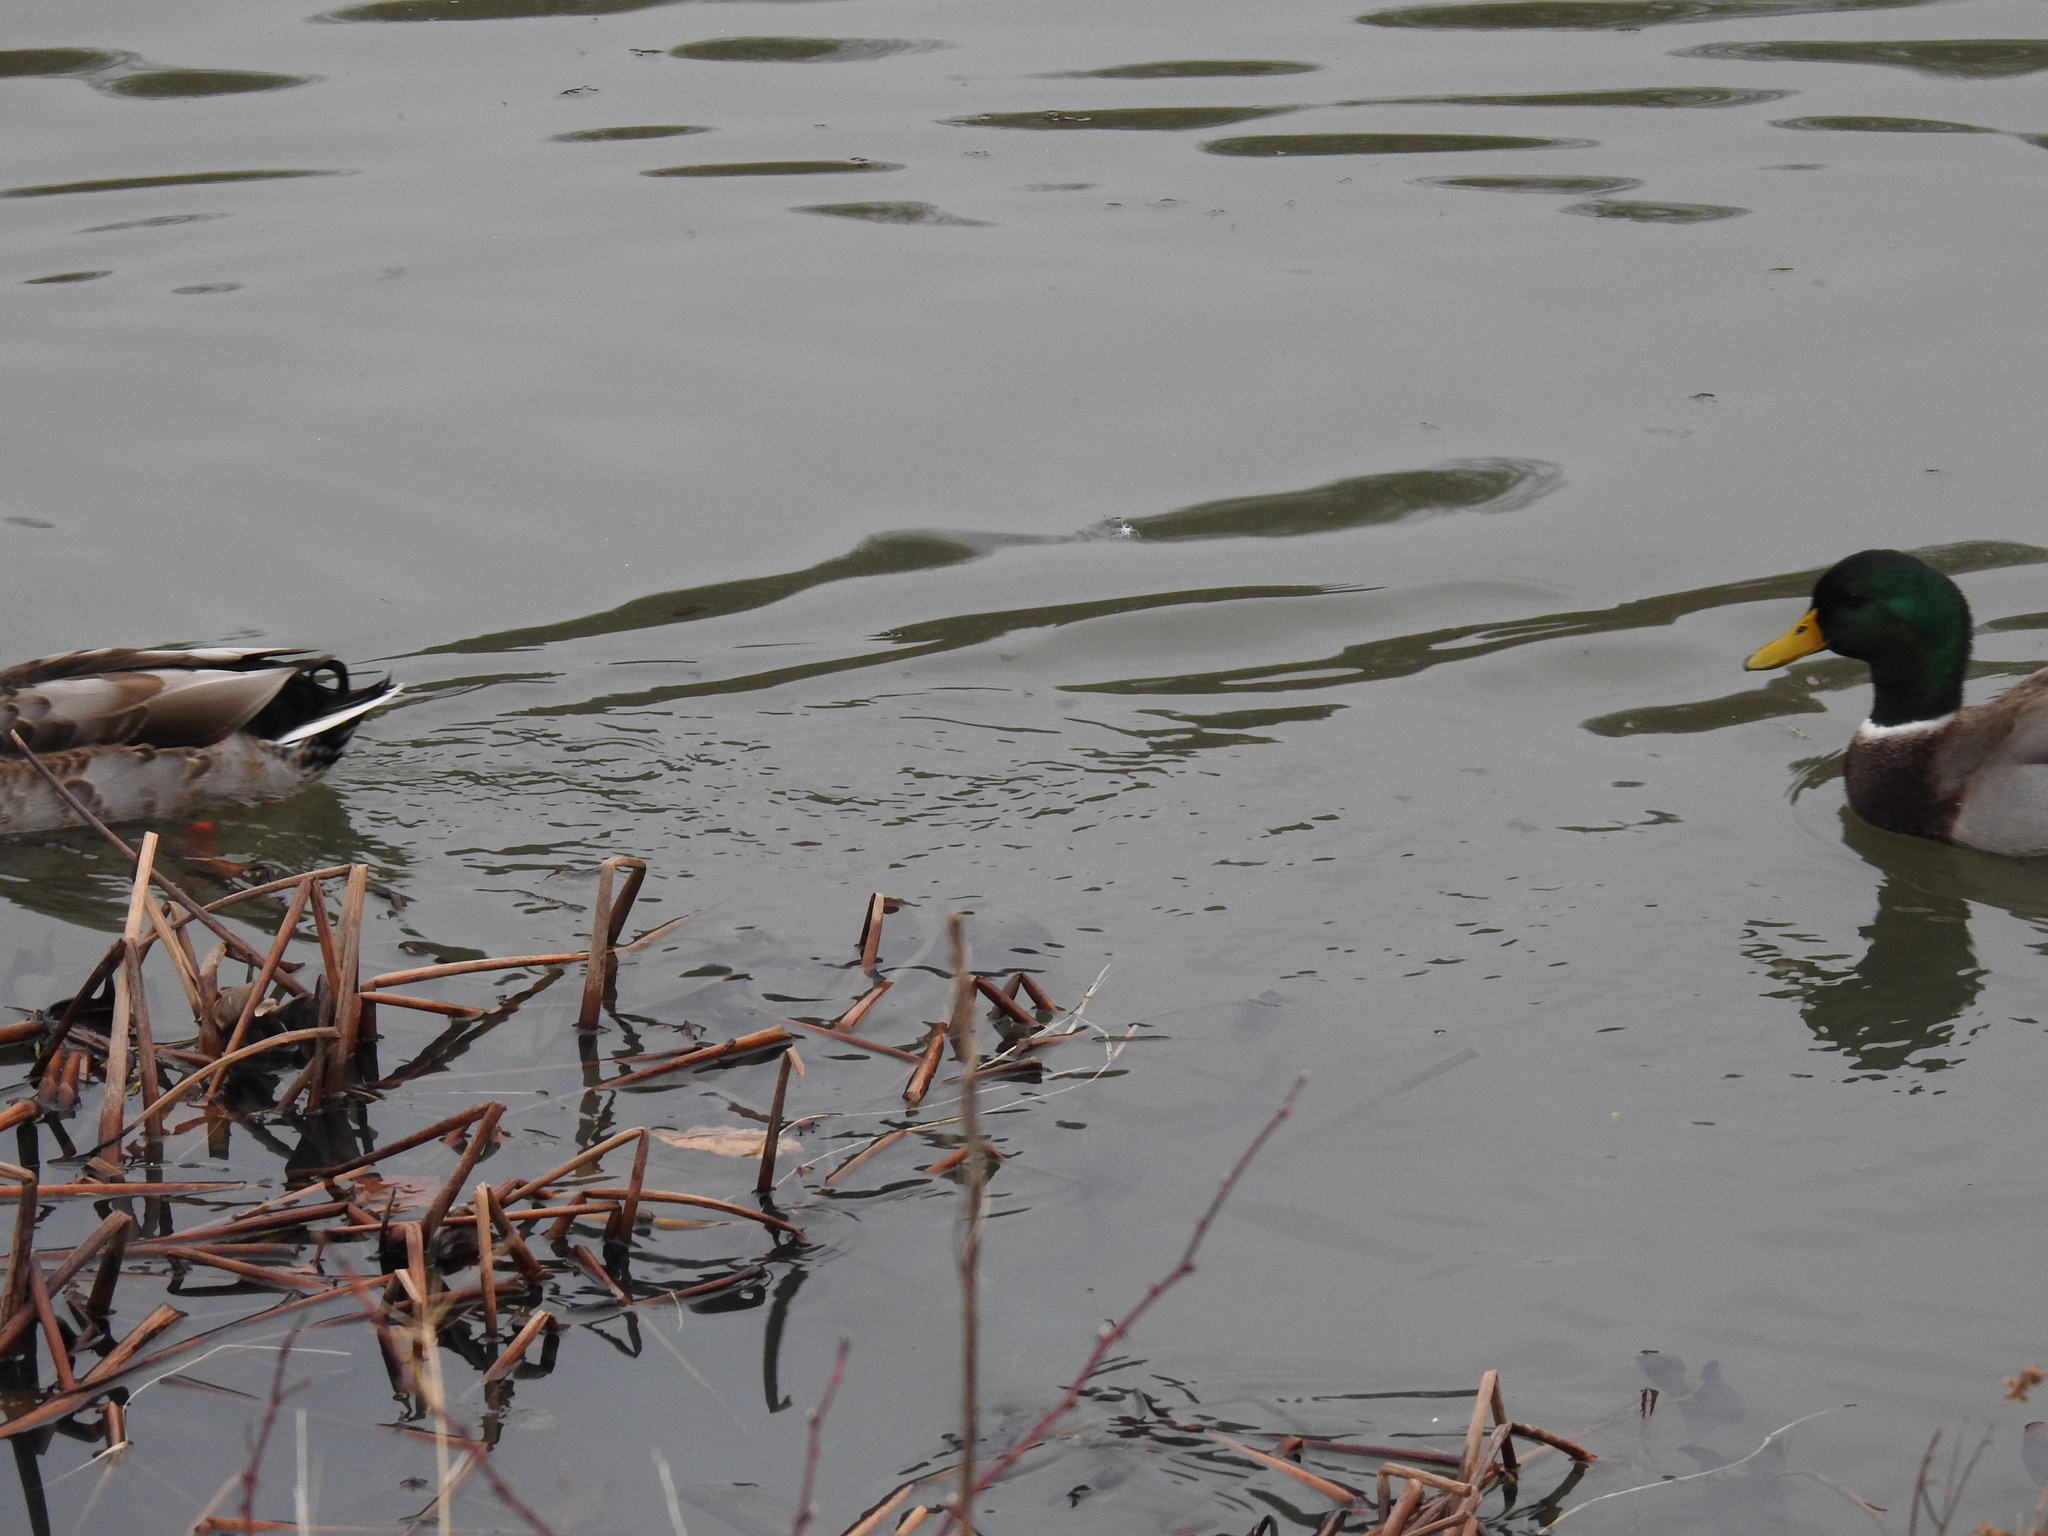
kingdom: Animalia
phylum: Chordata
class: Aves
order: Anseriformes
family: Anatidae
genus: Anas
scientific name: Anas platyrhynchos
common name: Mallard
